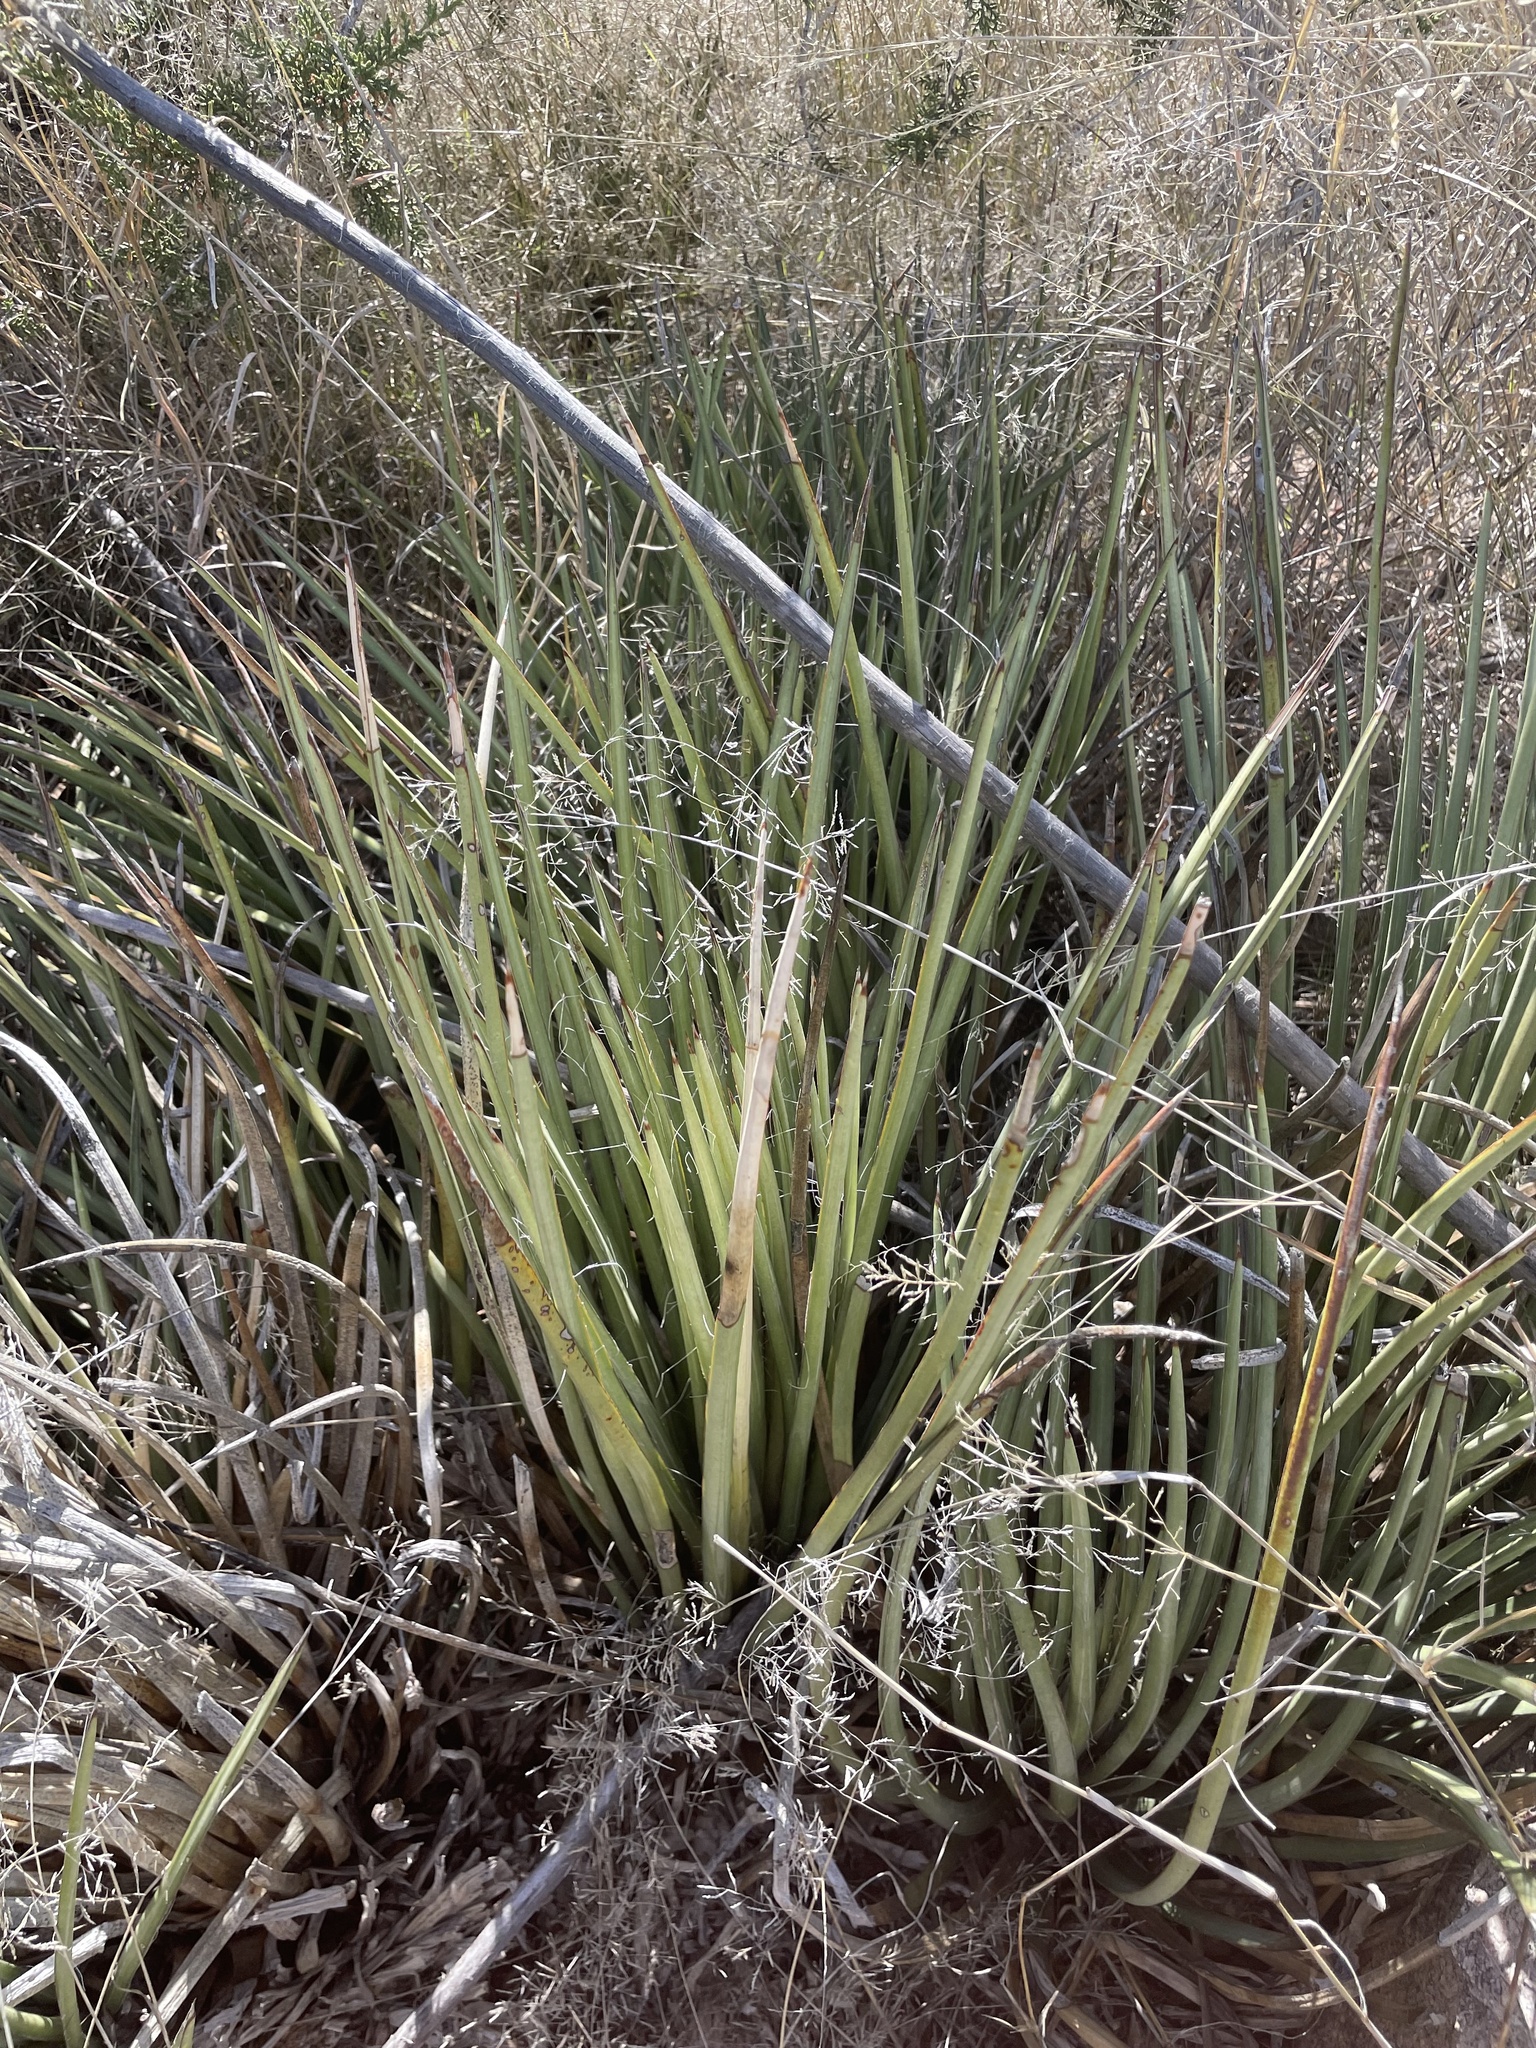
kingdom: Plantae
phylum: Tracheophyta
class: Liliopsida
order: Asparagales
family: Asparagaceae
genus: Agave
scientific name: Agave schottii
